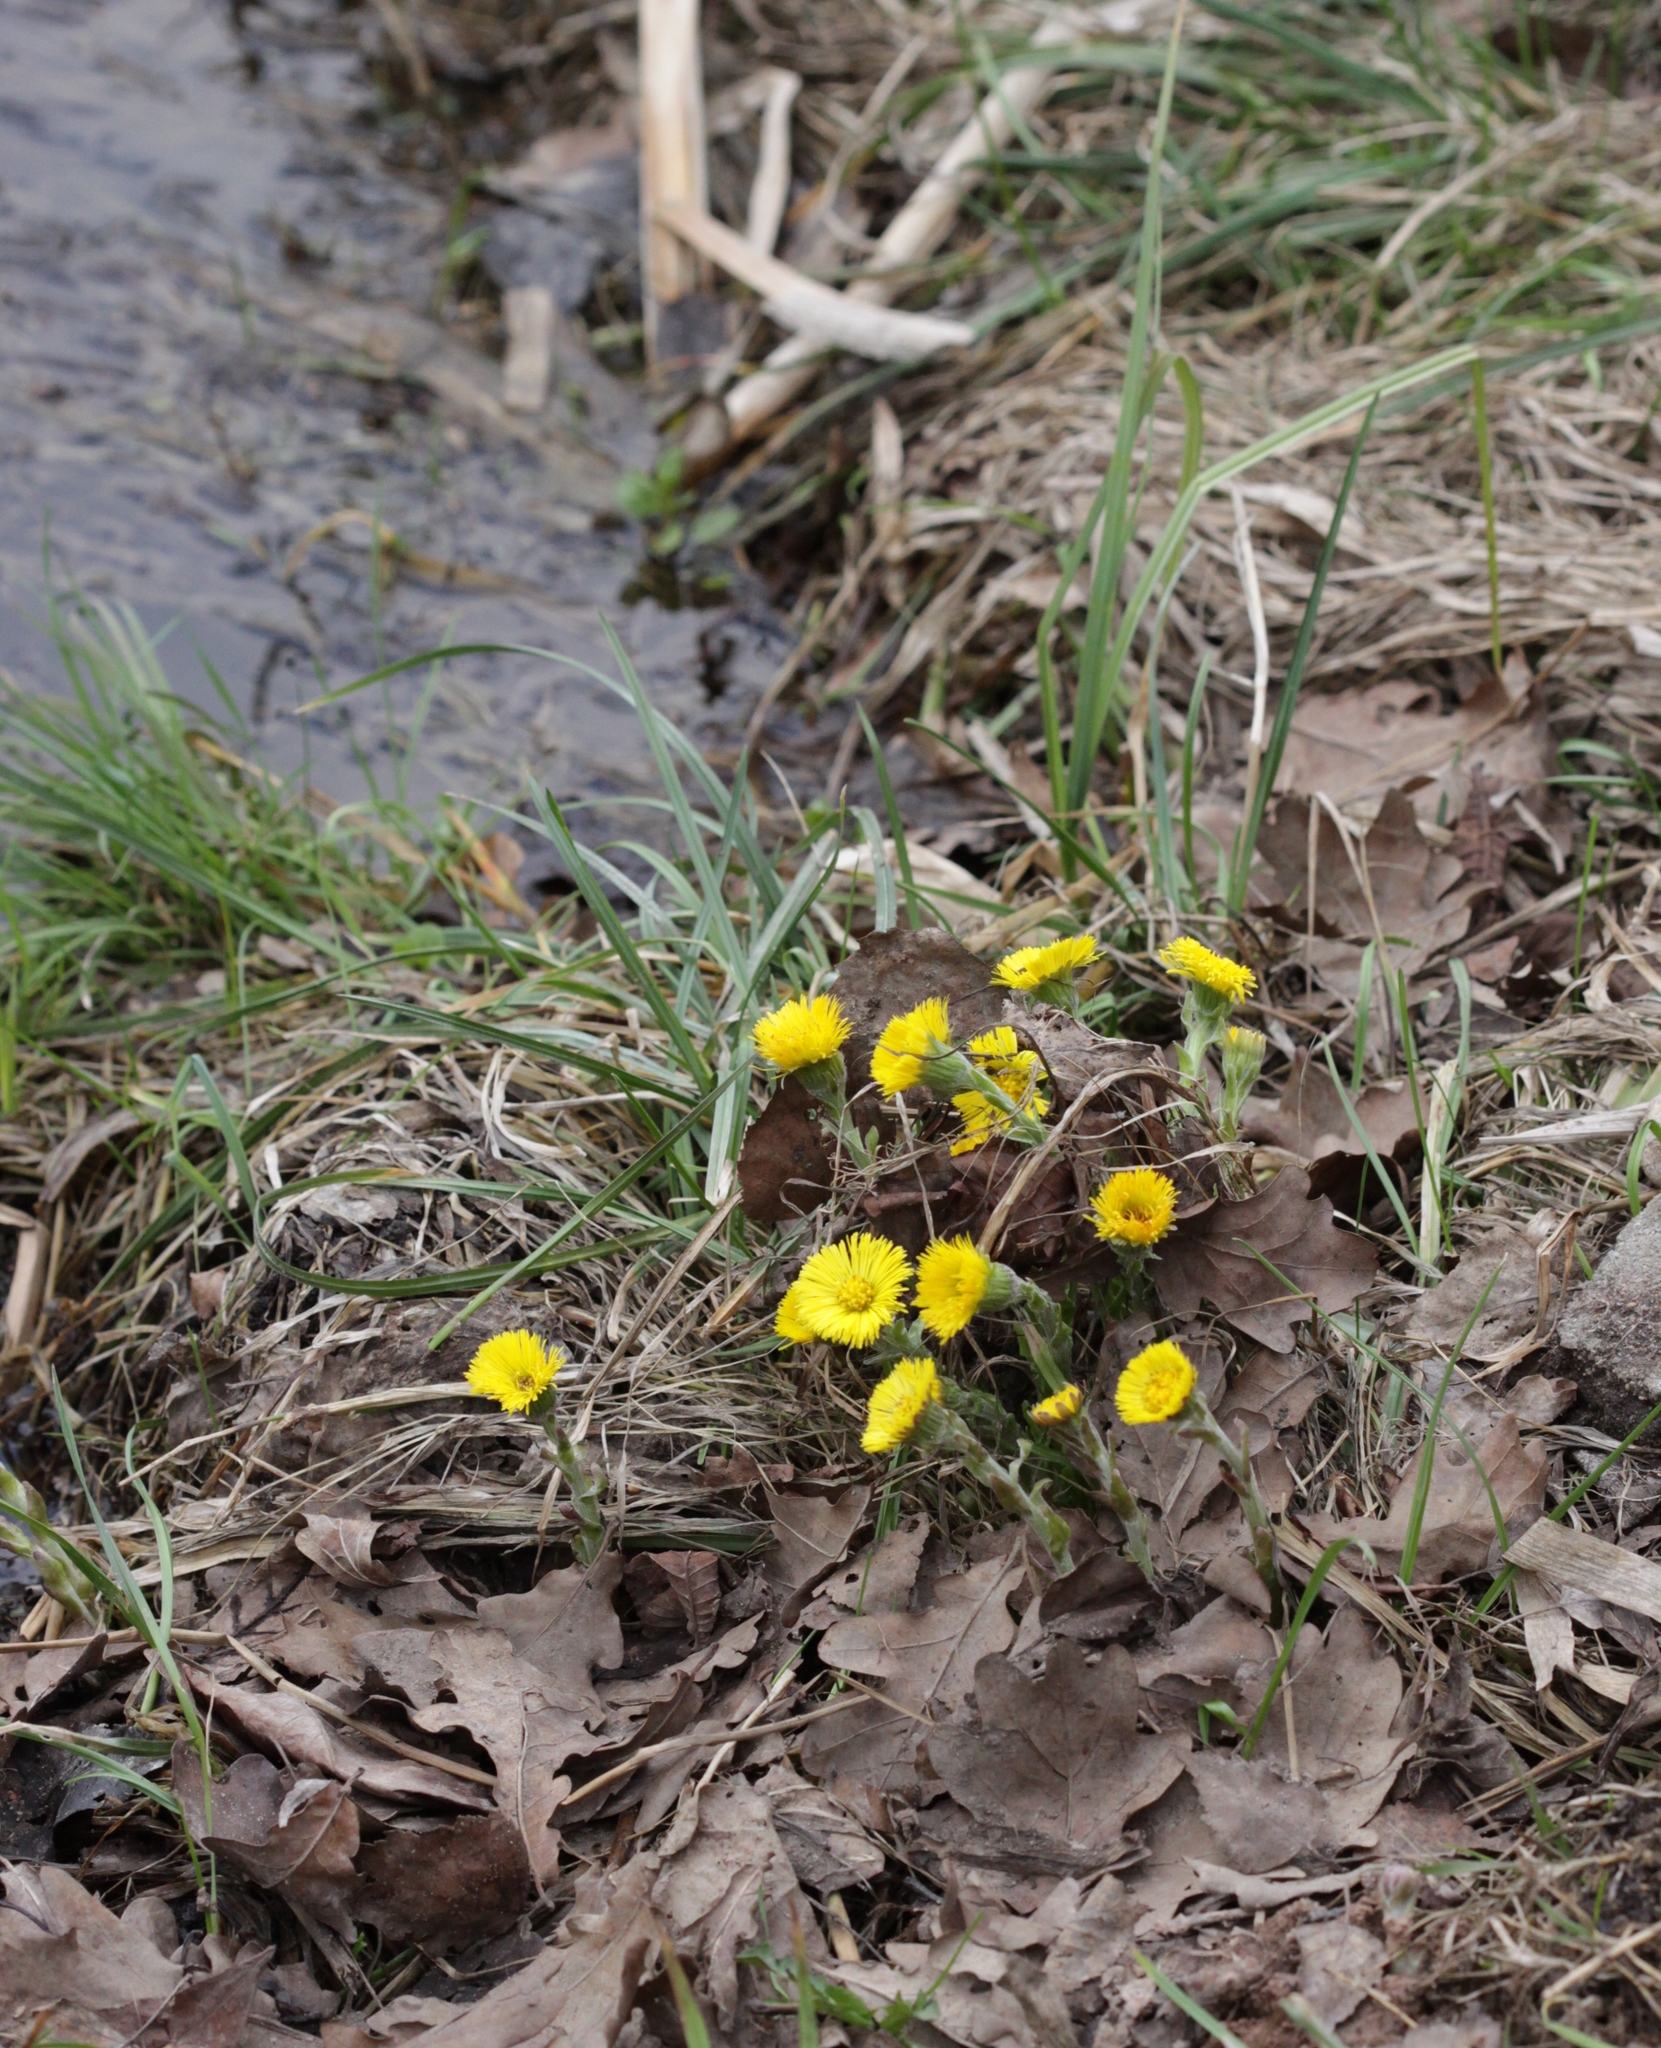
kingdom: Plantae
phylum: Tracheophyta
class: Magnoliopsida
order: Asterales
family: Asteraceae
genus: Tussilago
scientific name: Tussilago farfara
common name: Coltsfoot
